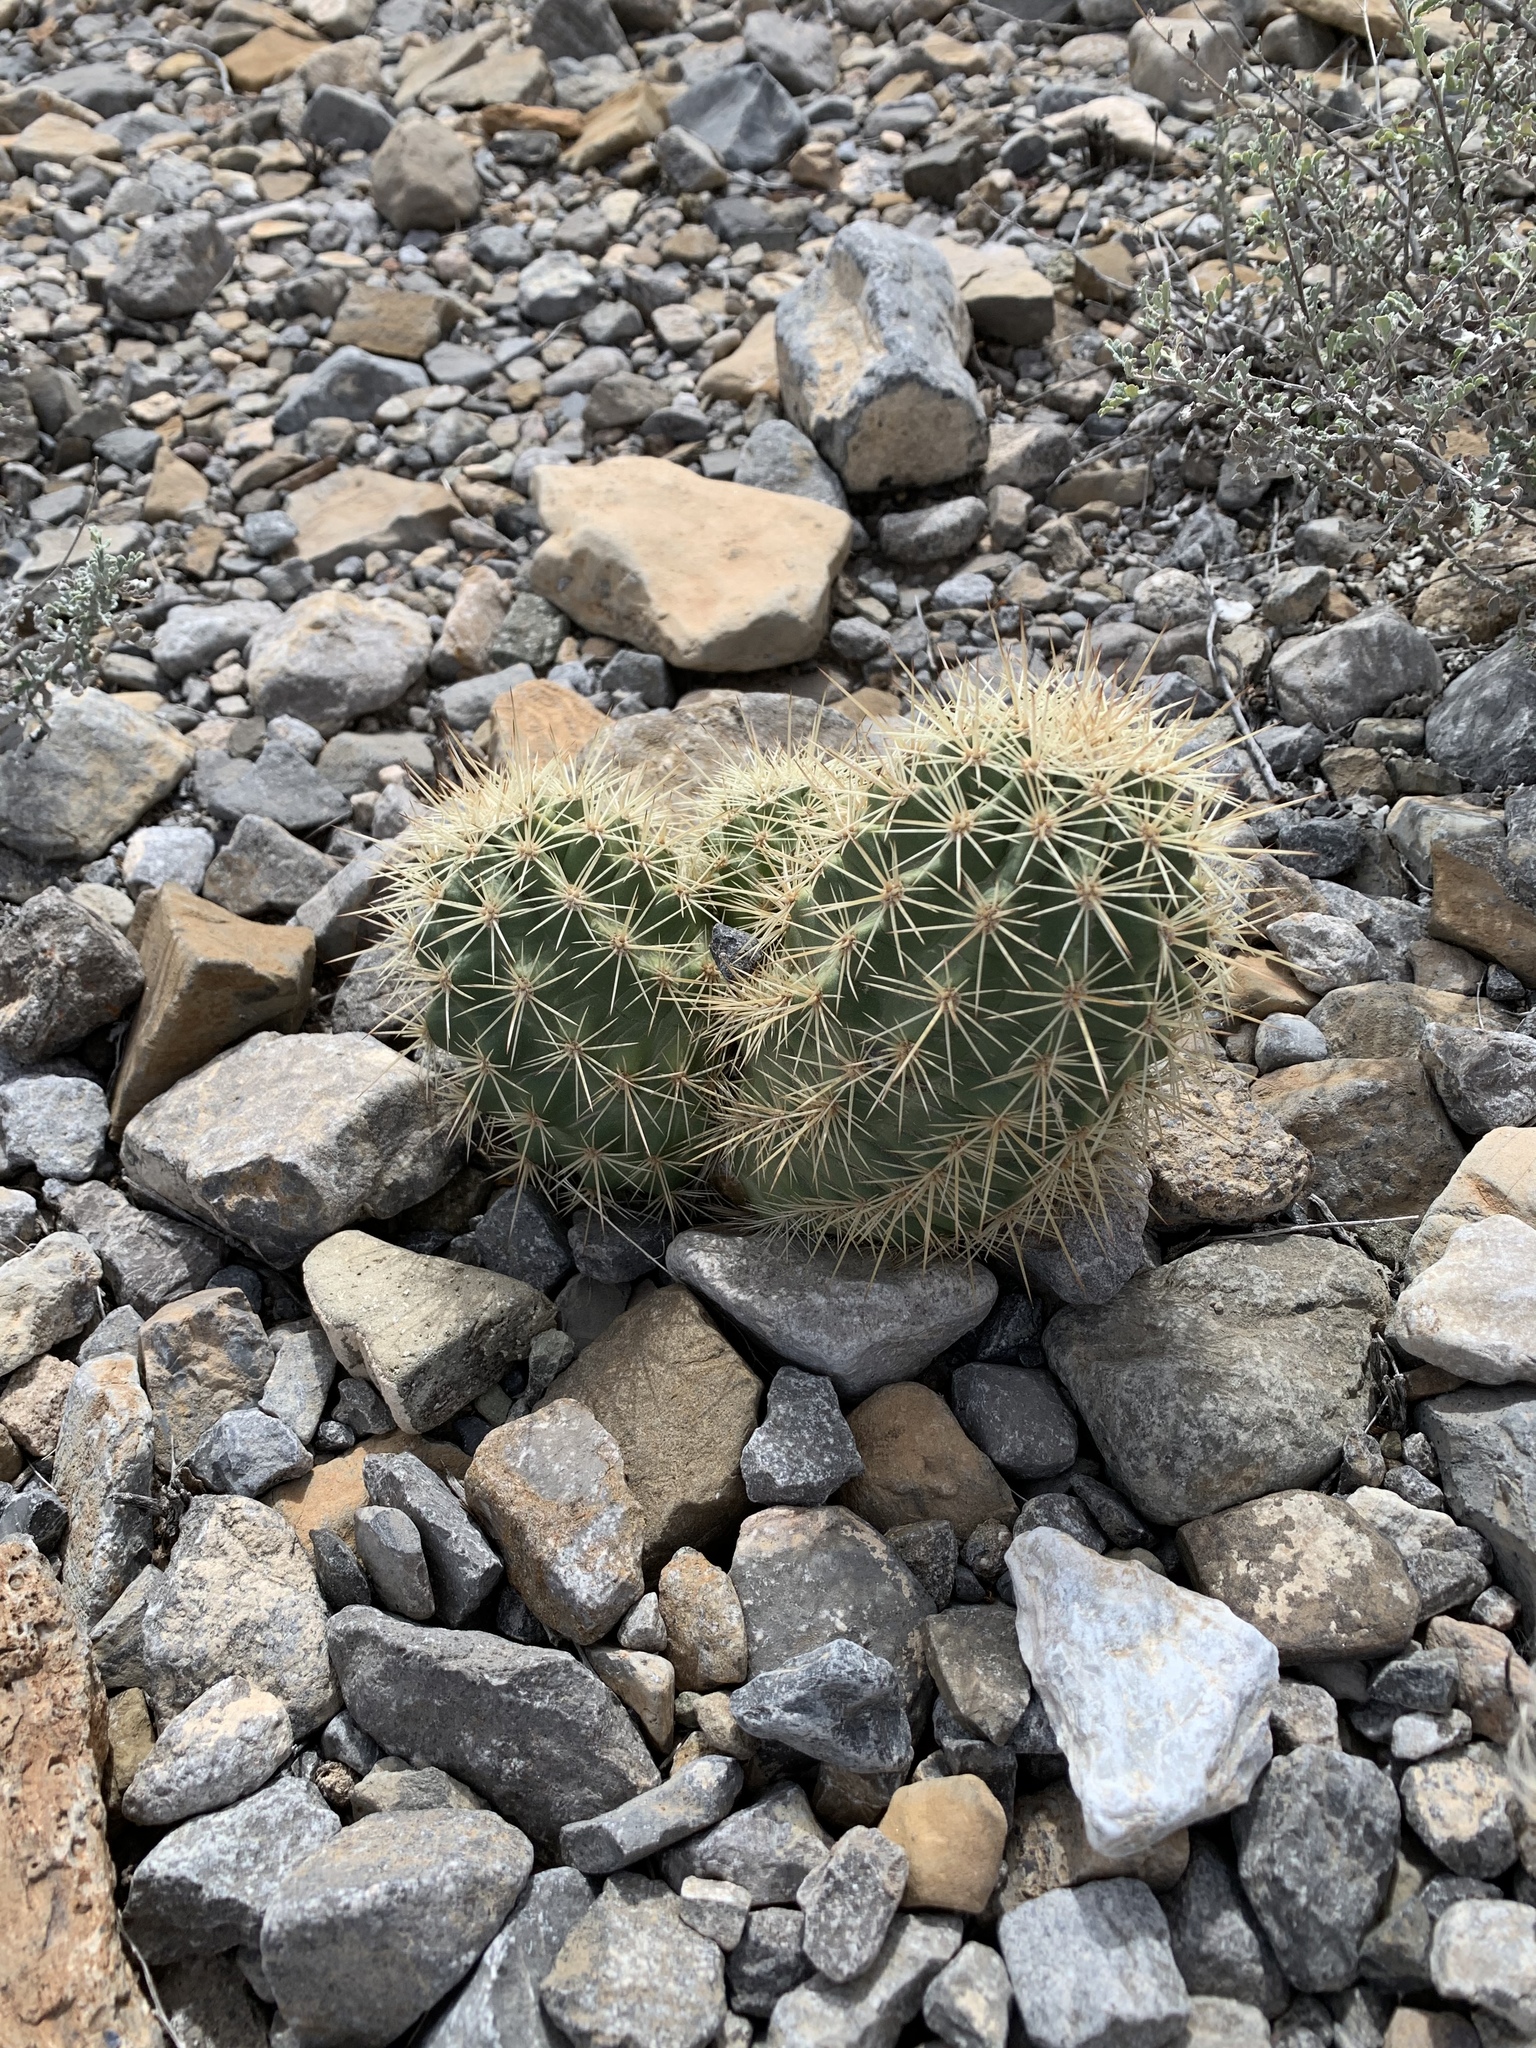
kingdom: Plantae
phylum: Tracheophyta
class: Magnoliopsida
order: Caryophyllales
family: Cactaceae
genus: Echinocereus
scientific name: Echinocereus coccineus
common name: Scarlet hedgehog cactus
